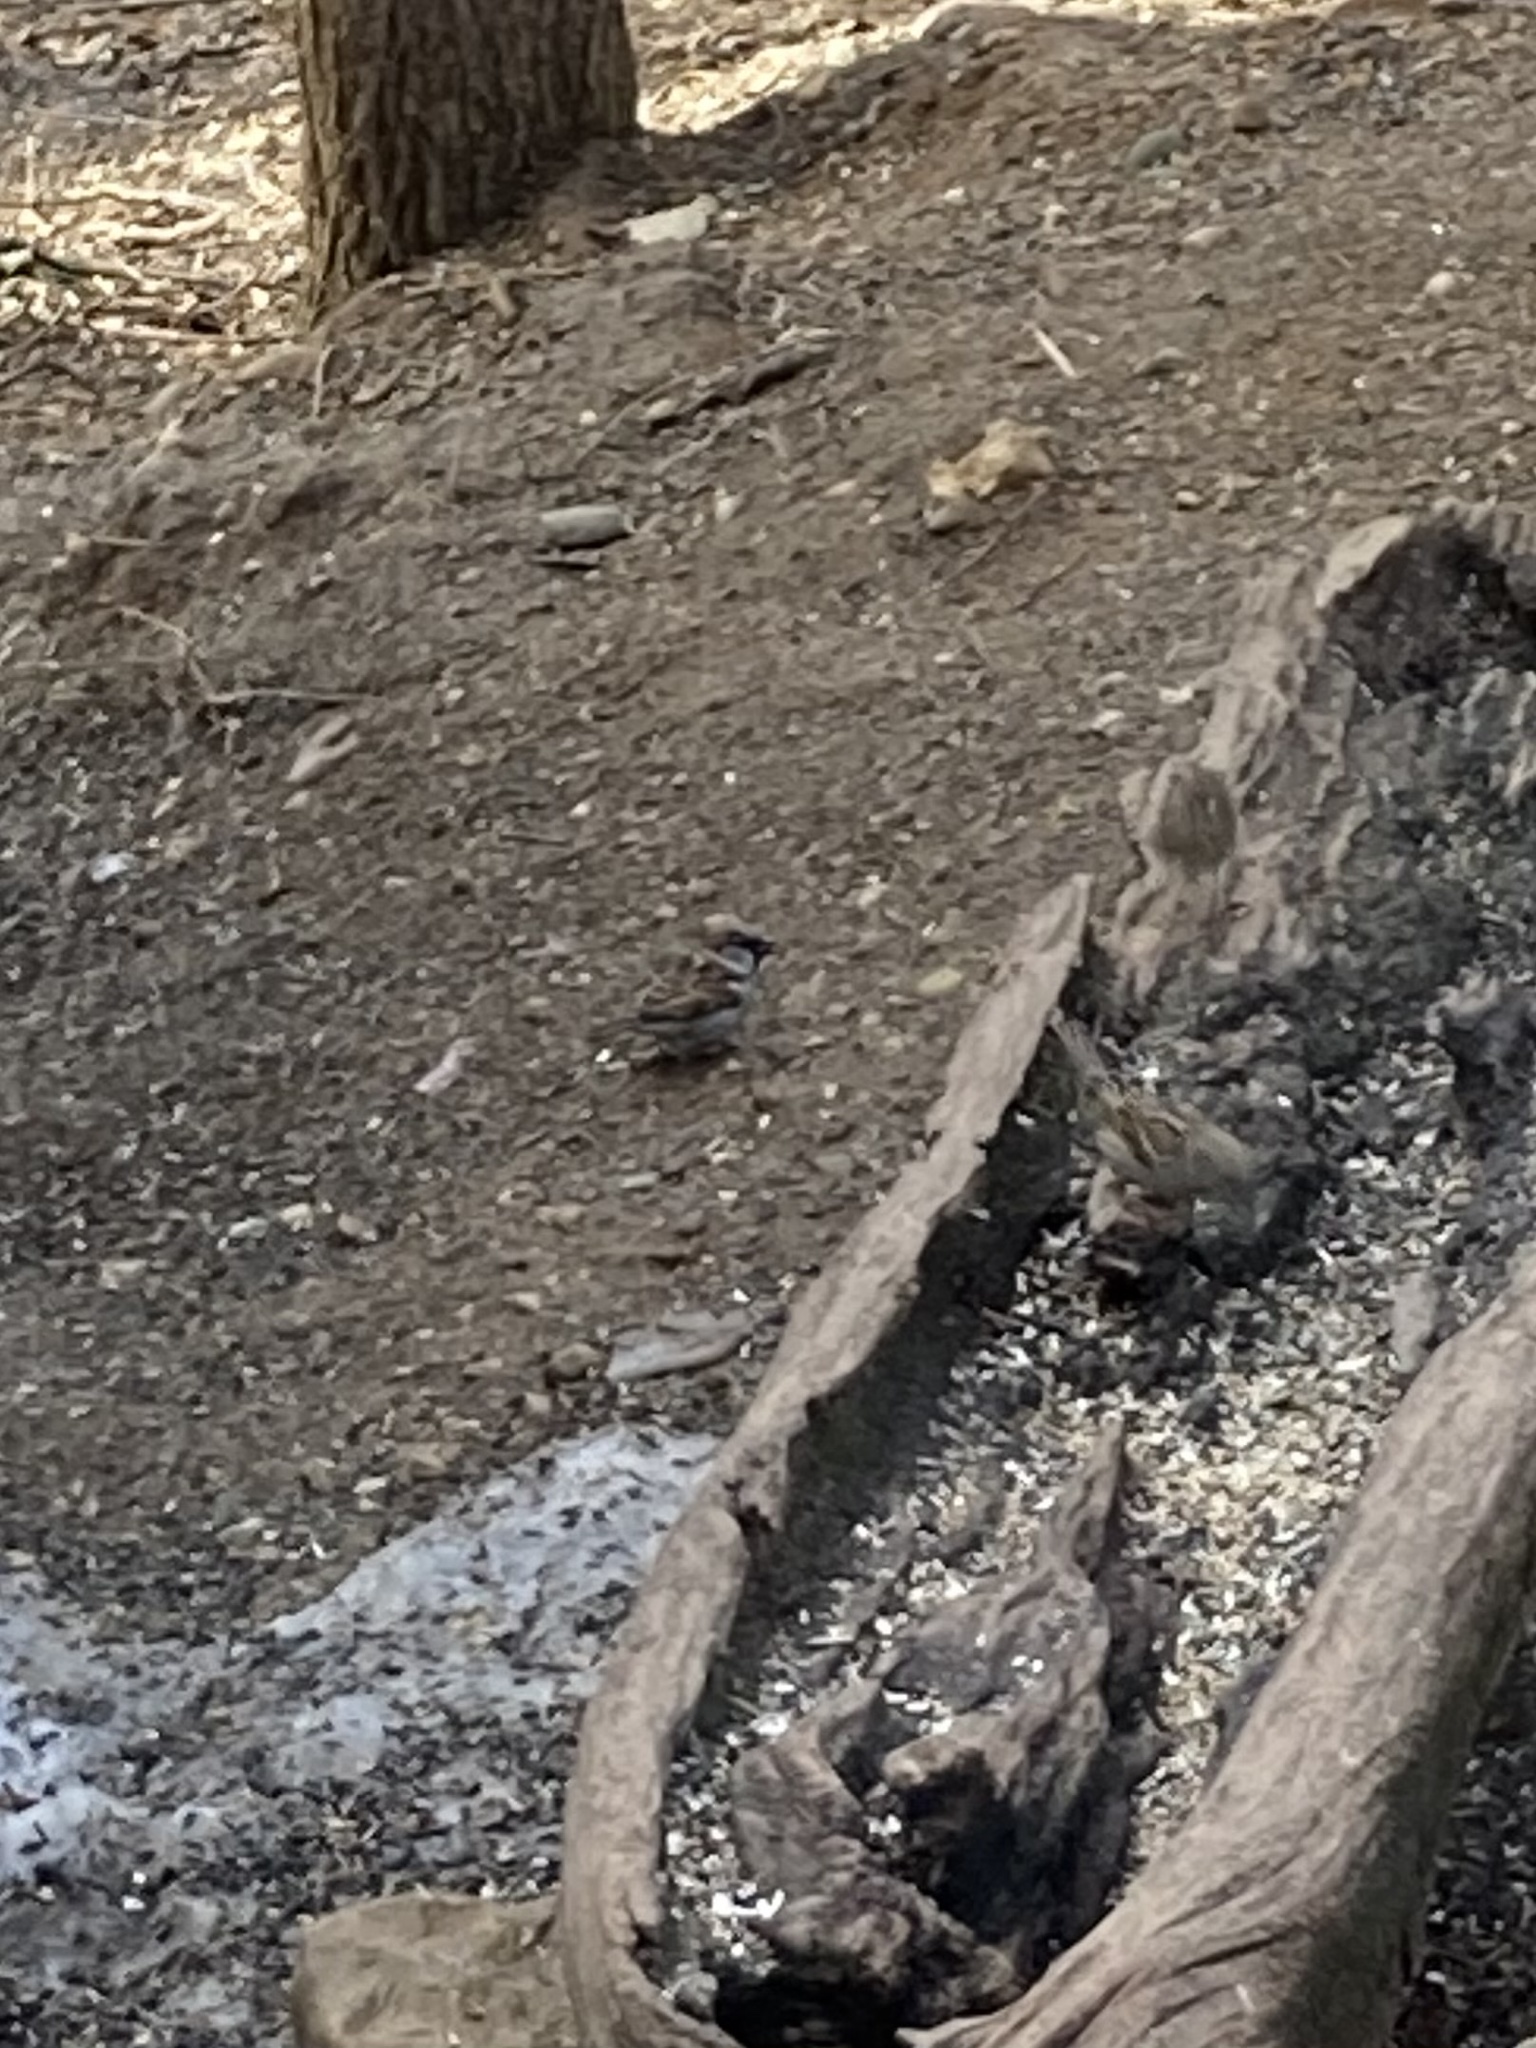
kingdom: Animalia
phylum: Chordata
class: Aves
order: Passeriformes
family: Passeridae
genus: Passer
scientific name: Passer domesticus
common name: House sparrow
